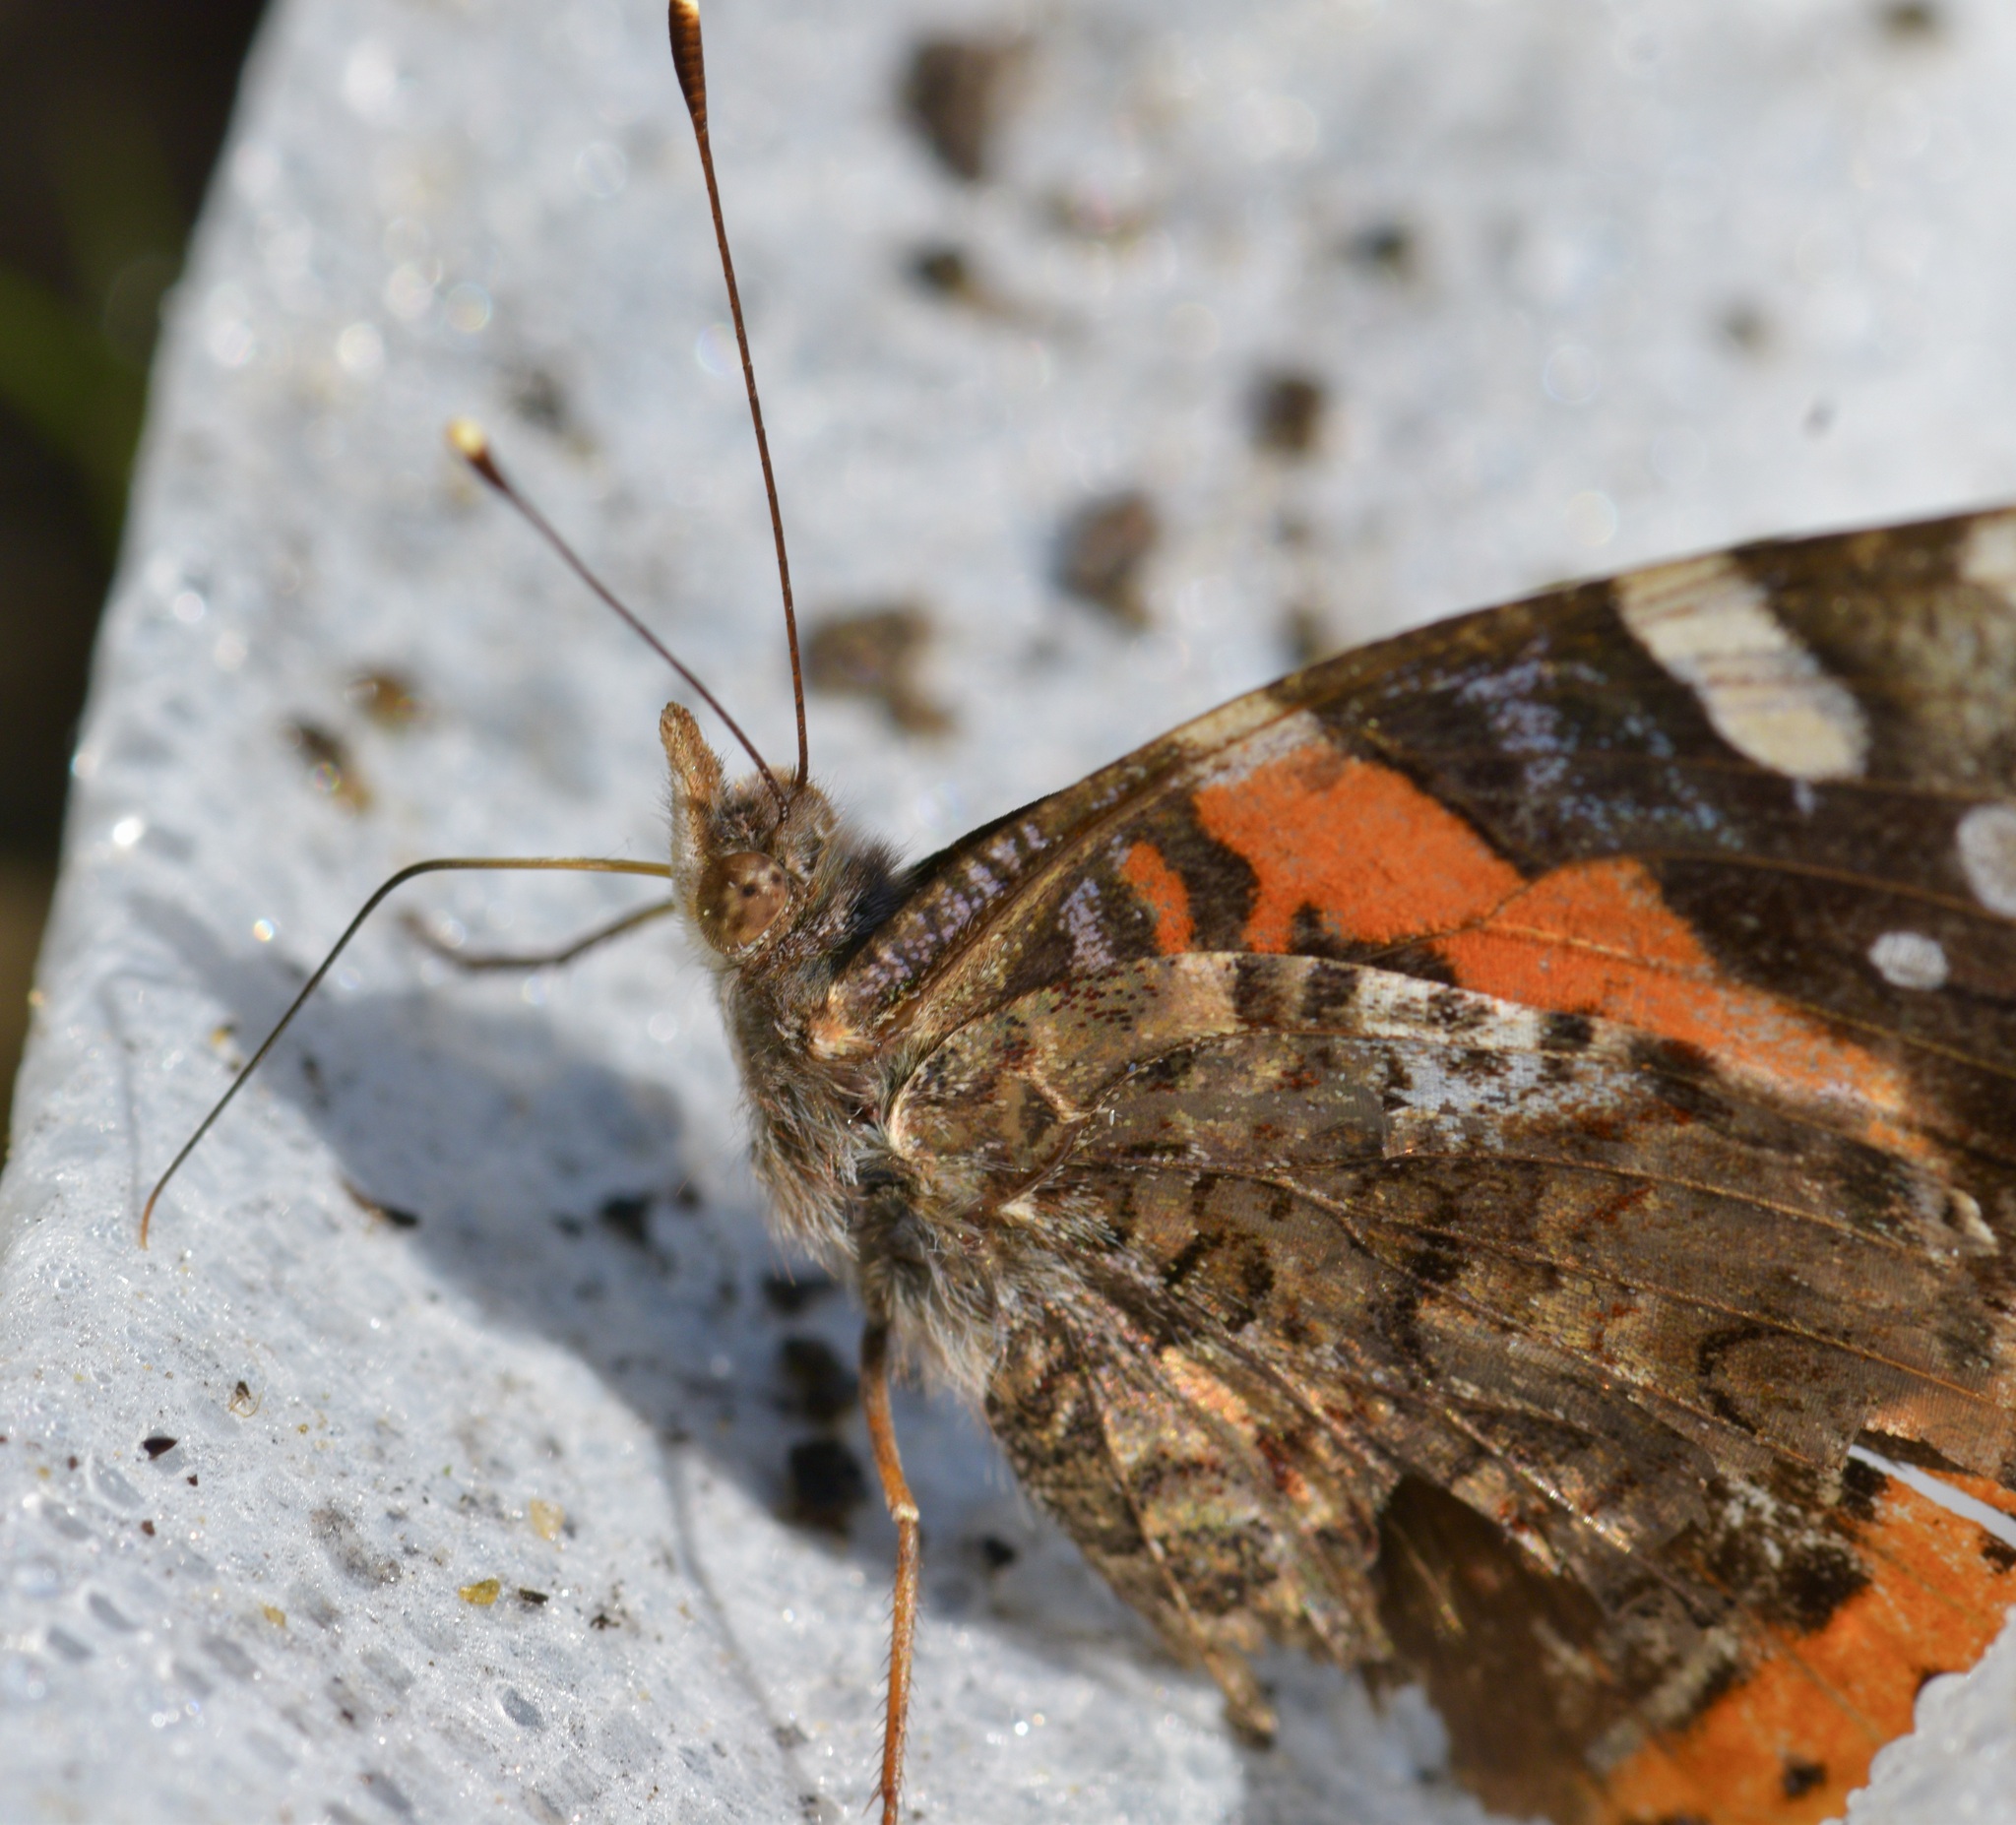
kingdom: Animalia
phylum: Arthropoda
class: Insecta
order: Lepidoptera
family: Nymphalidae
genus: Vanessa
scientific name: Vanessa atalanta
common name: Red admiral
